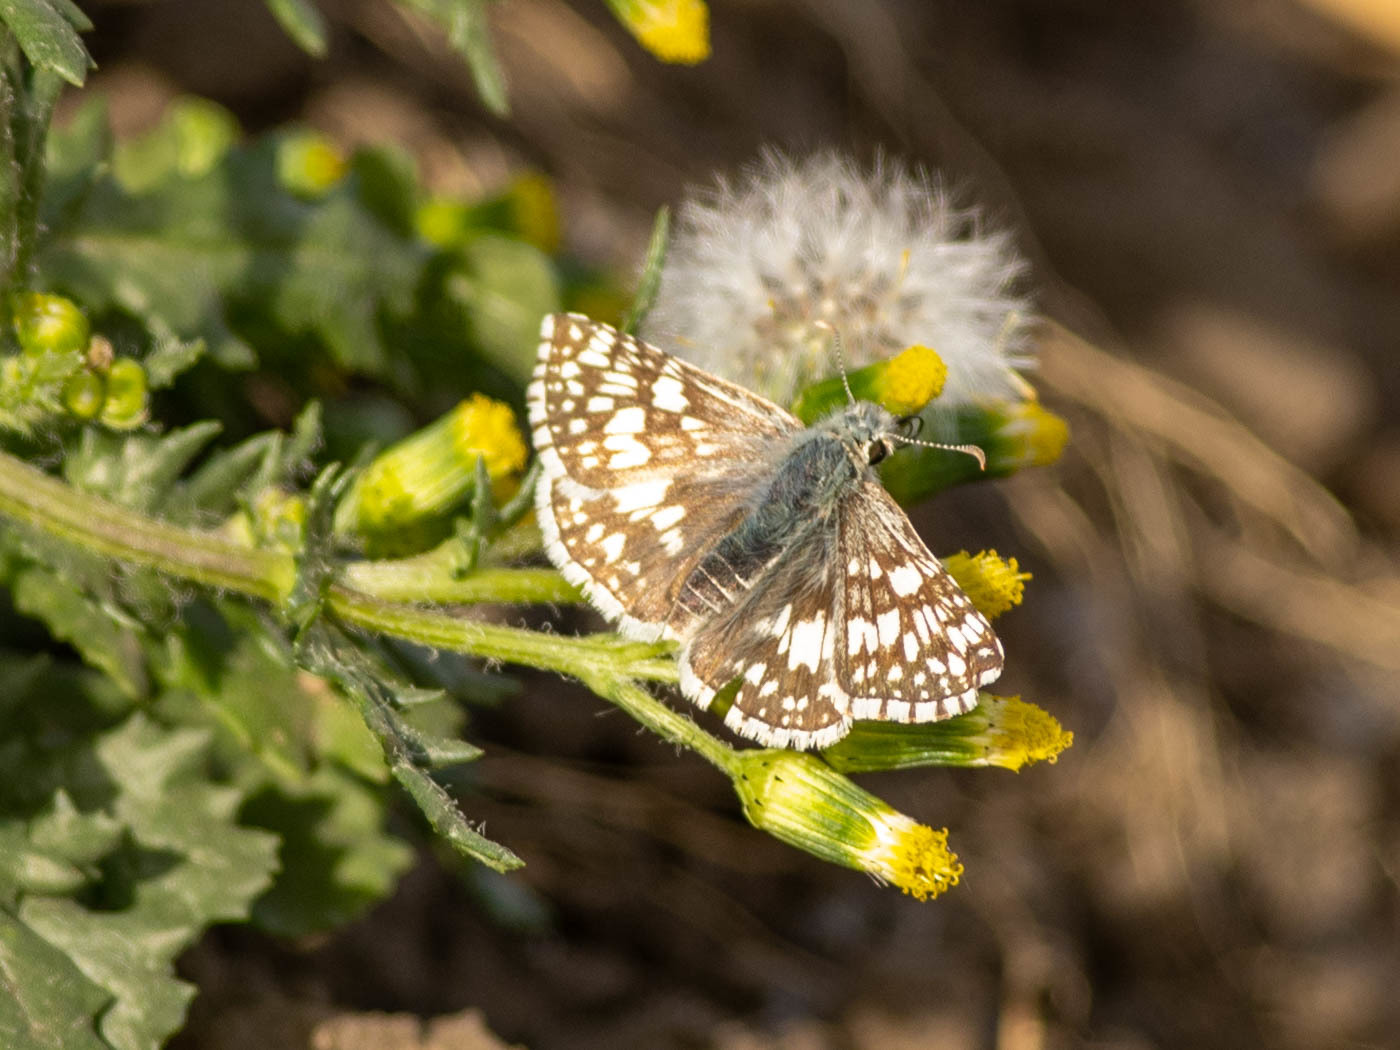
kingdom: Animalia
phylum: Arthropoda
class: Insecta
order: Lepidoptera
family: Hesperiidae
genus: Burnsius
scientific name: Burnsius communis
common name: Common checkered-skipper
